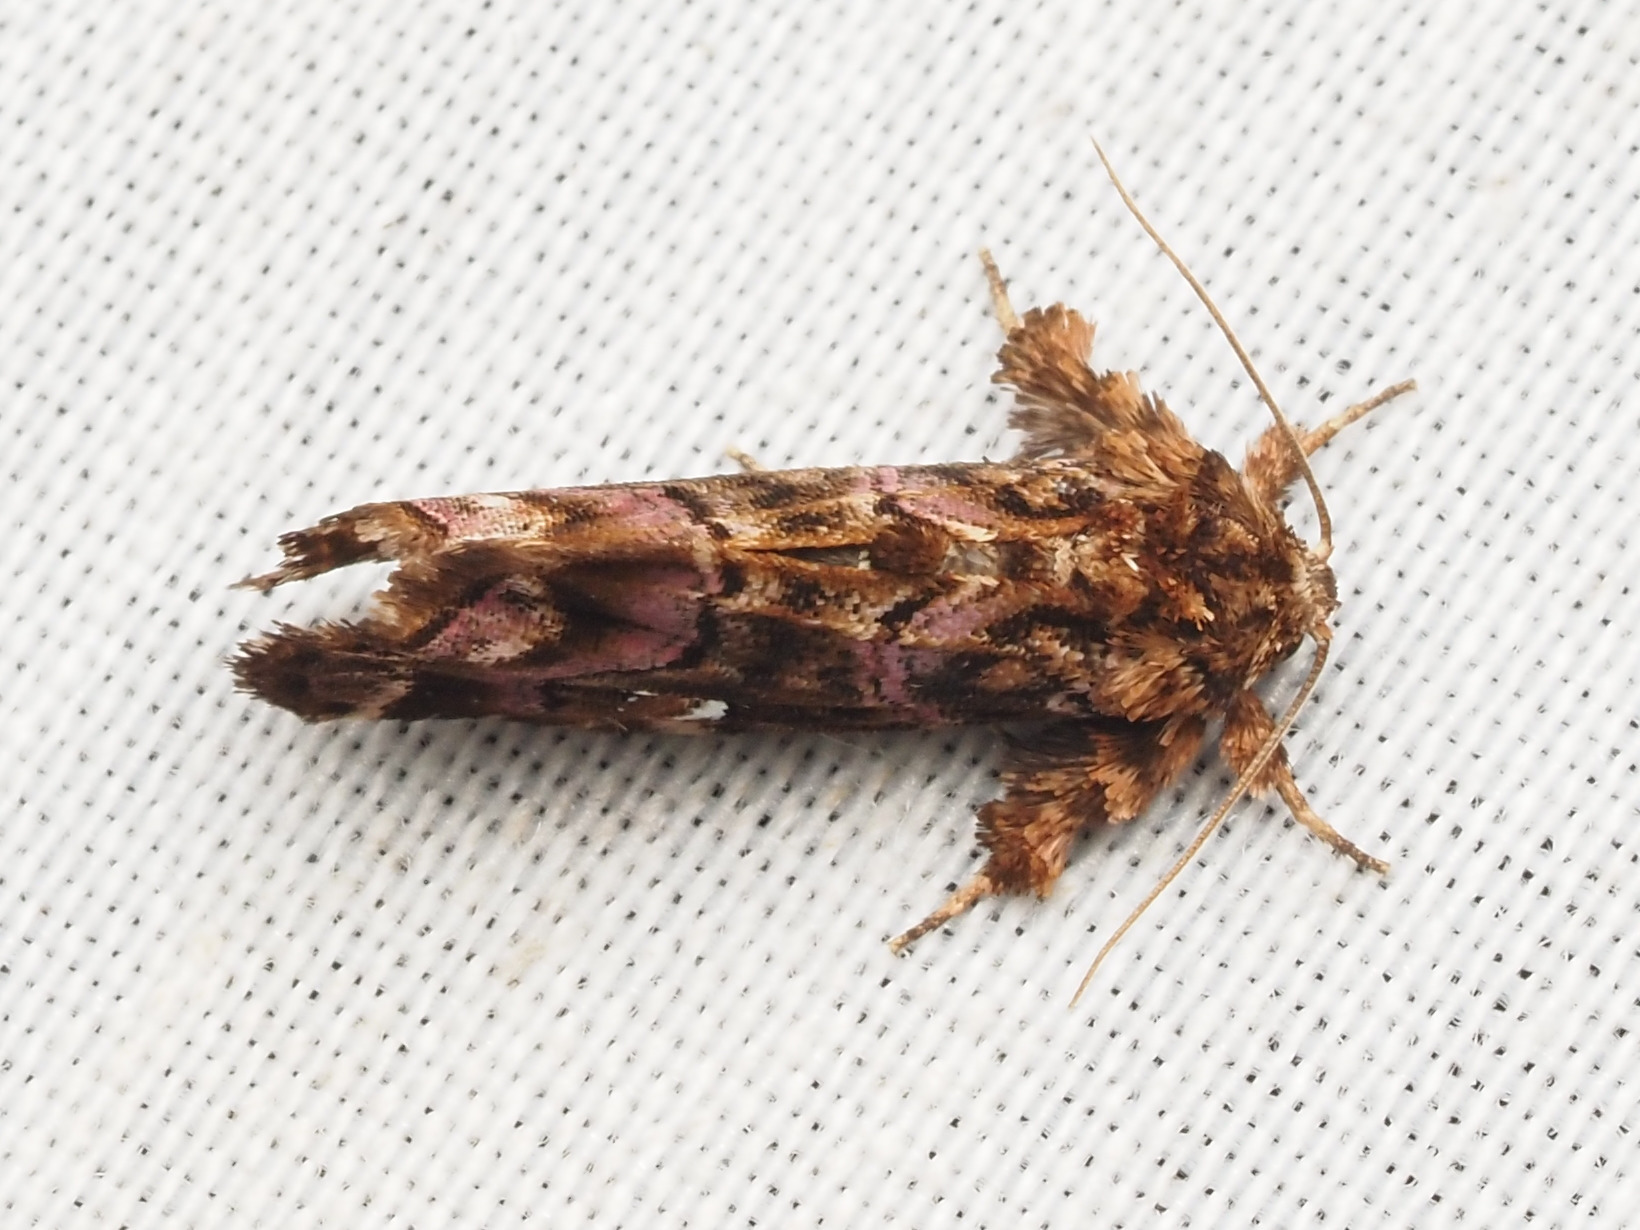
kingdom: Animalia
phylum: Arthropoda
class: Insecta
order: Lepidoptera
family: Noctuidae
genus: Callopistria
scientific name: Callopistria mollissima
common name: Pink-shaded fern moth
